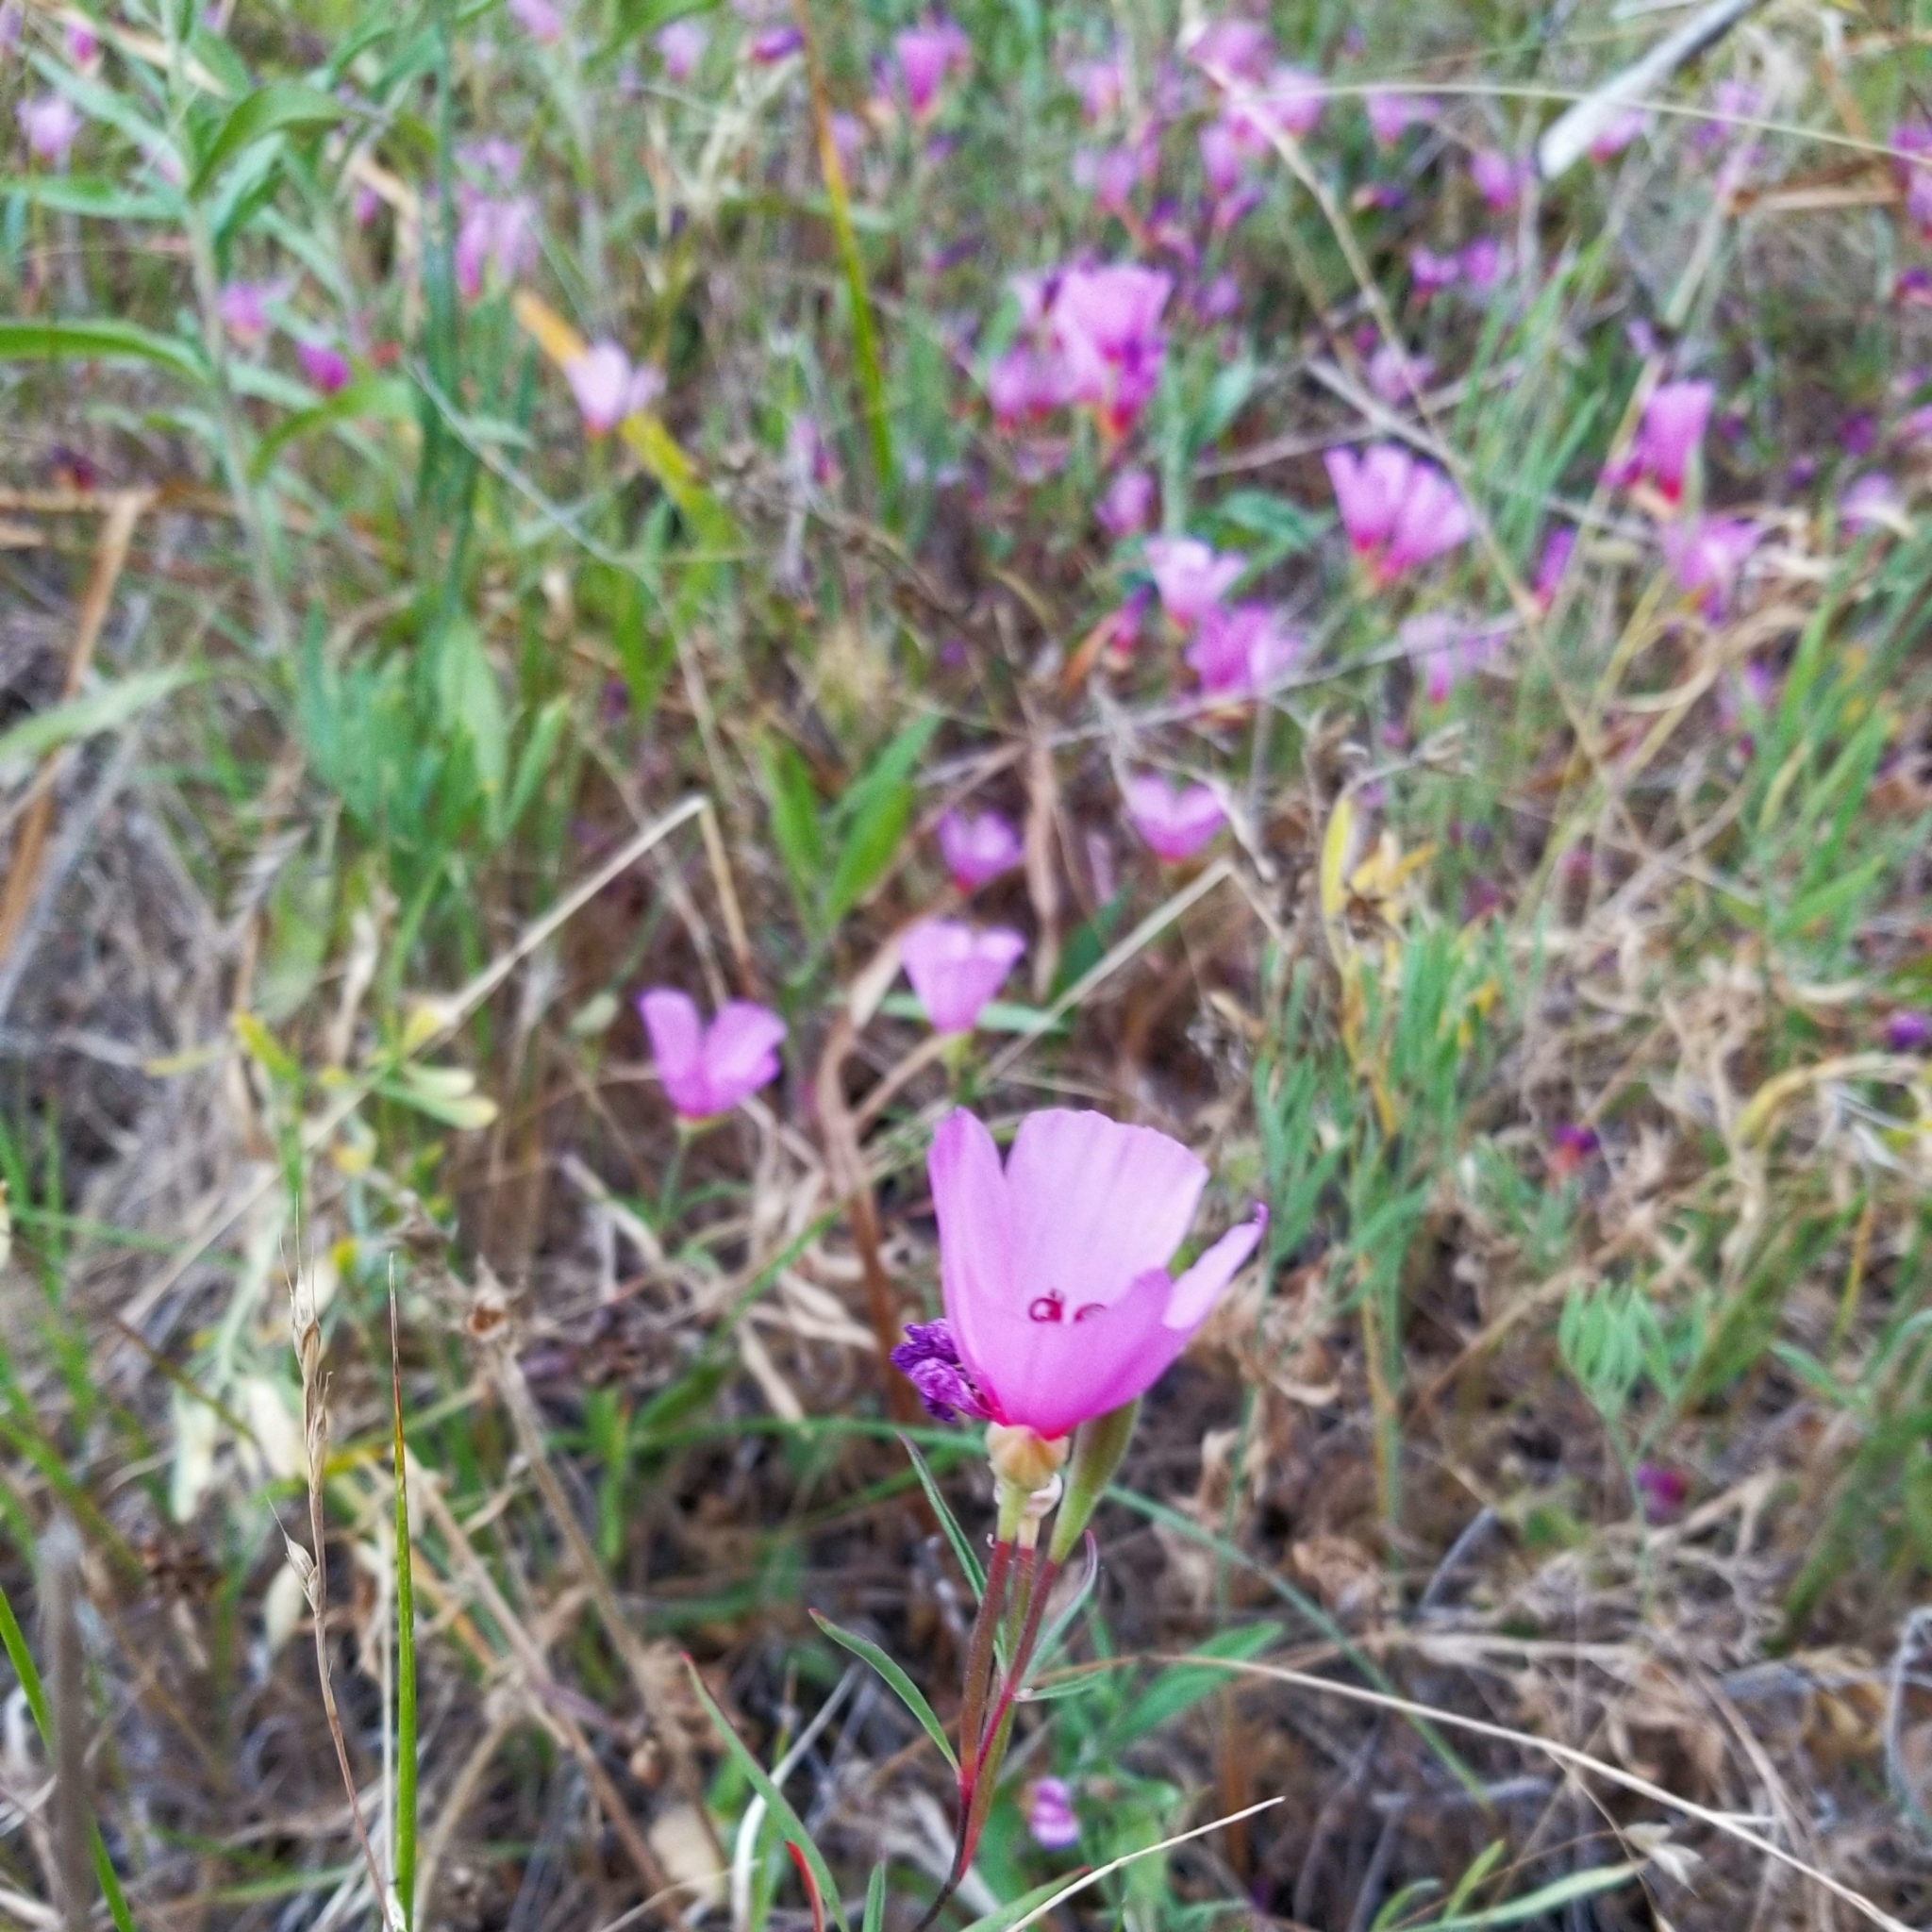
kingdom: Plantae
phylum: Tracheophyta
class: Magnoliopsida
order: Myrtales
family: Onagraceae
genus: Clarkia
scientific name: Clarkia rubicunda
